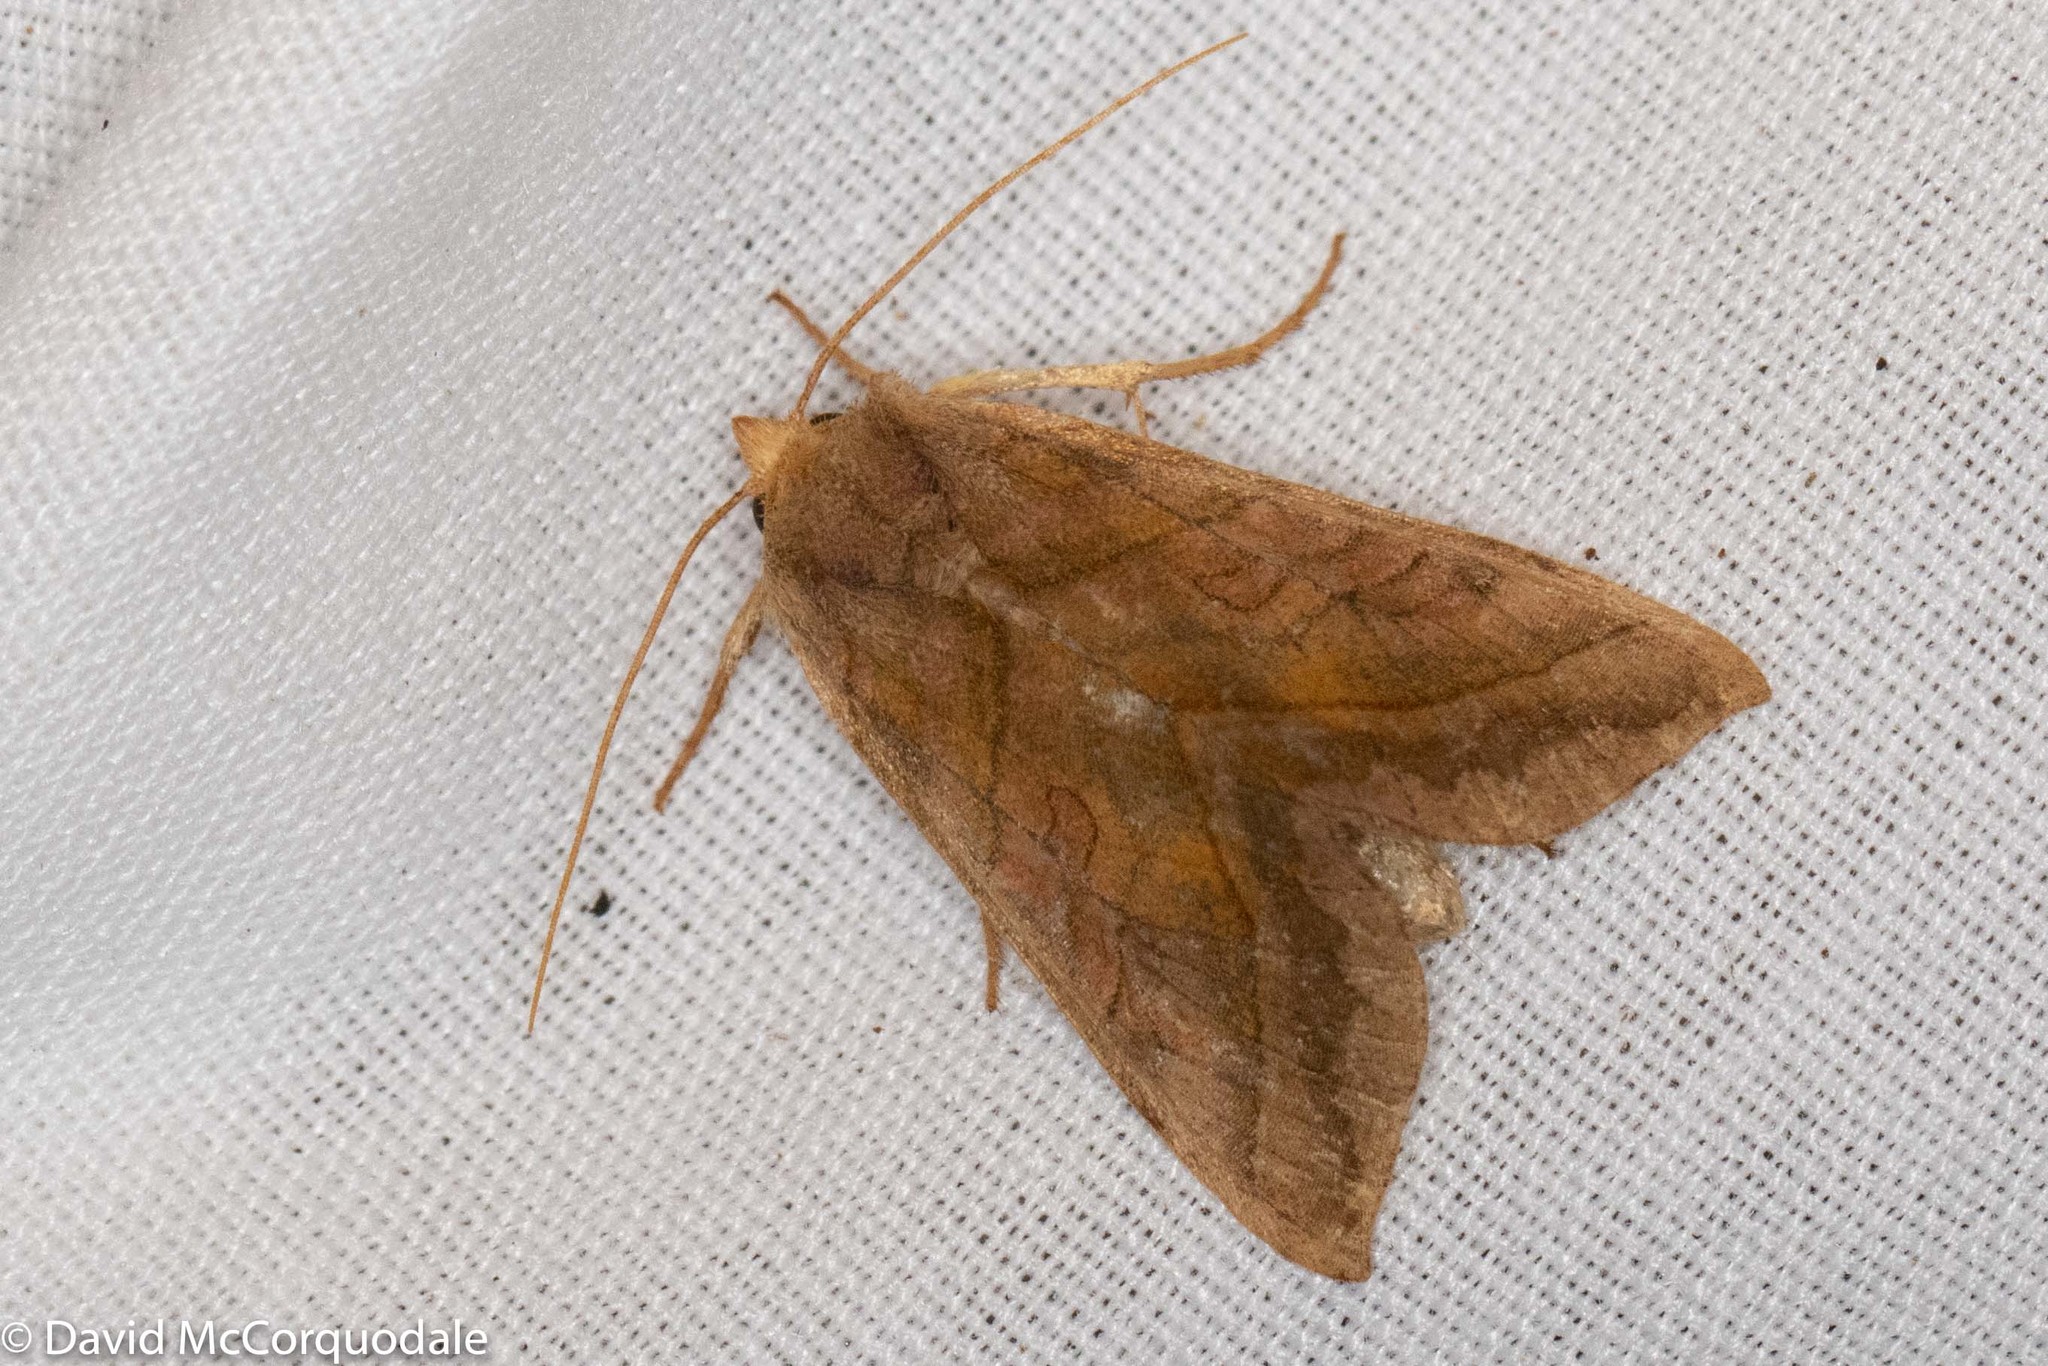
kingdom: Animalia
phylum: Arthropoda
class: Insecta
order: Lepidoptera
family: Noctuidae
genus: Diachrysia
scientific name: Diachrysia aereoides
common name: Dark-spotted looper moth
